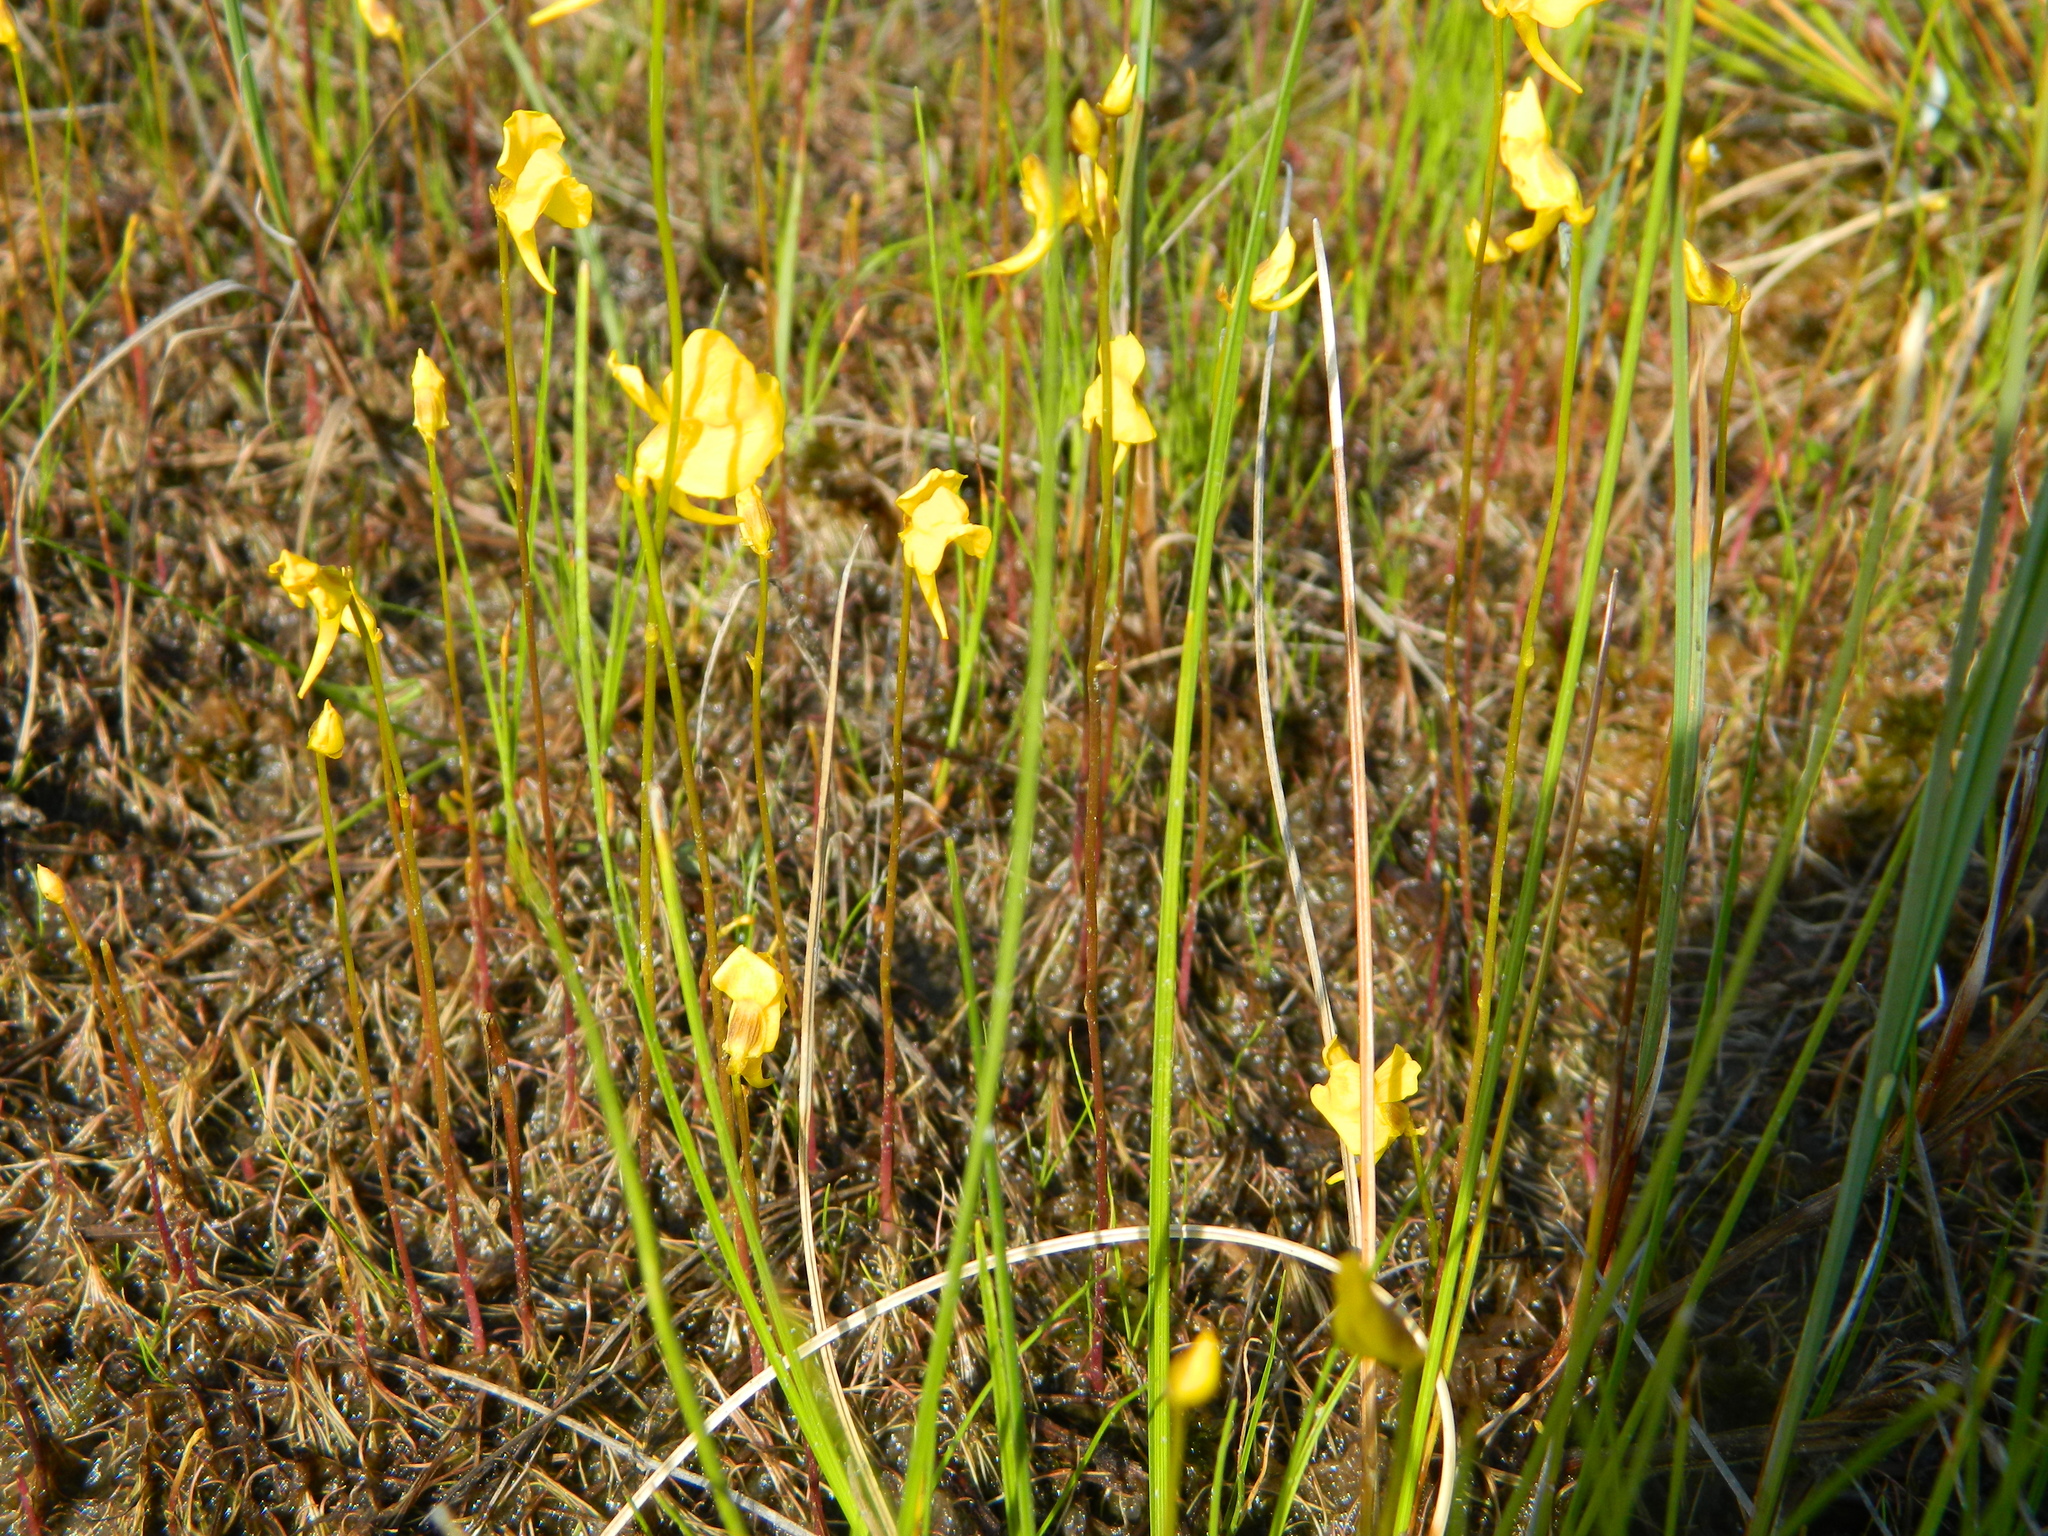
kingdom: Plantae
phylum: Tracheophyta
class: Magnoliopsida
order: Lamiales
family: Lentibulariaceae
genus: Utricularia
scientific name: Utricularia cornuta
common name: Horned bladderwort
